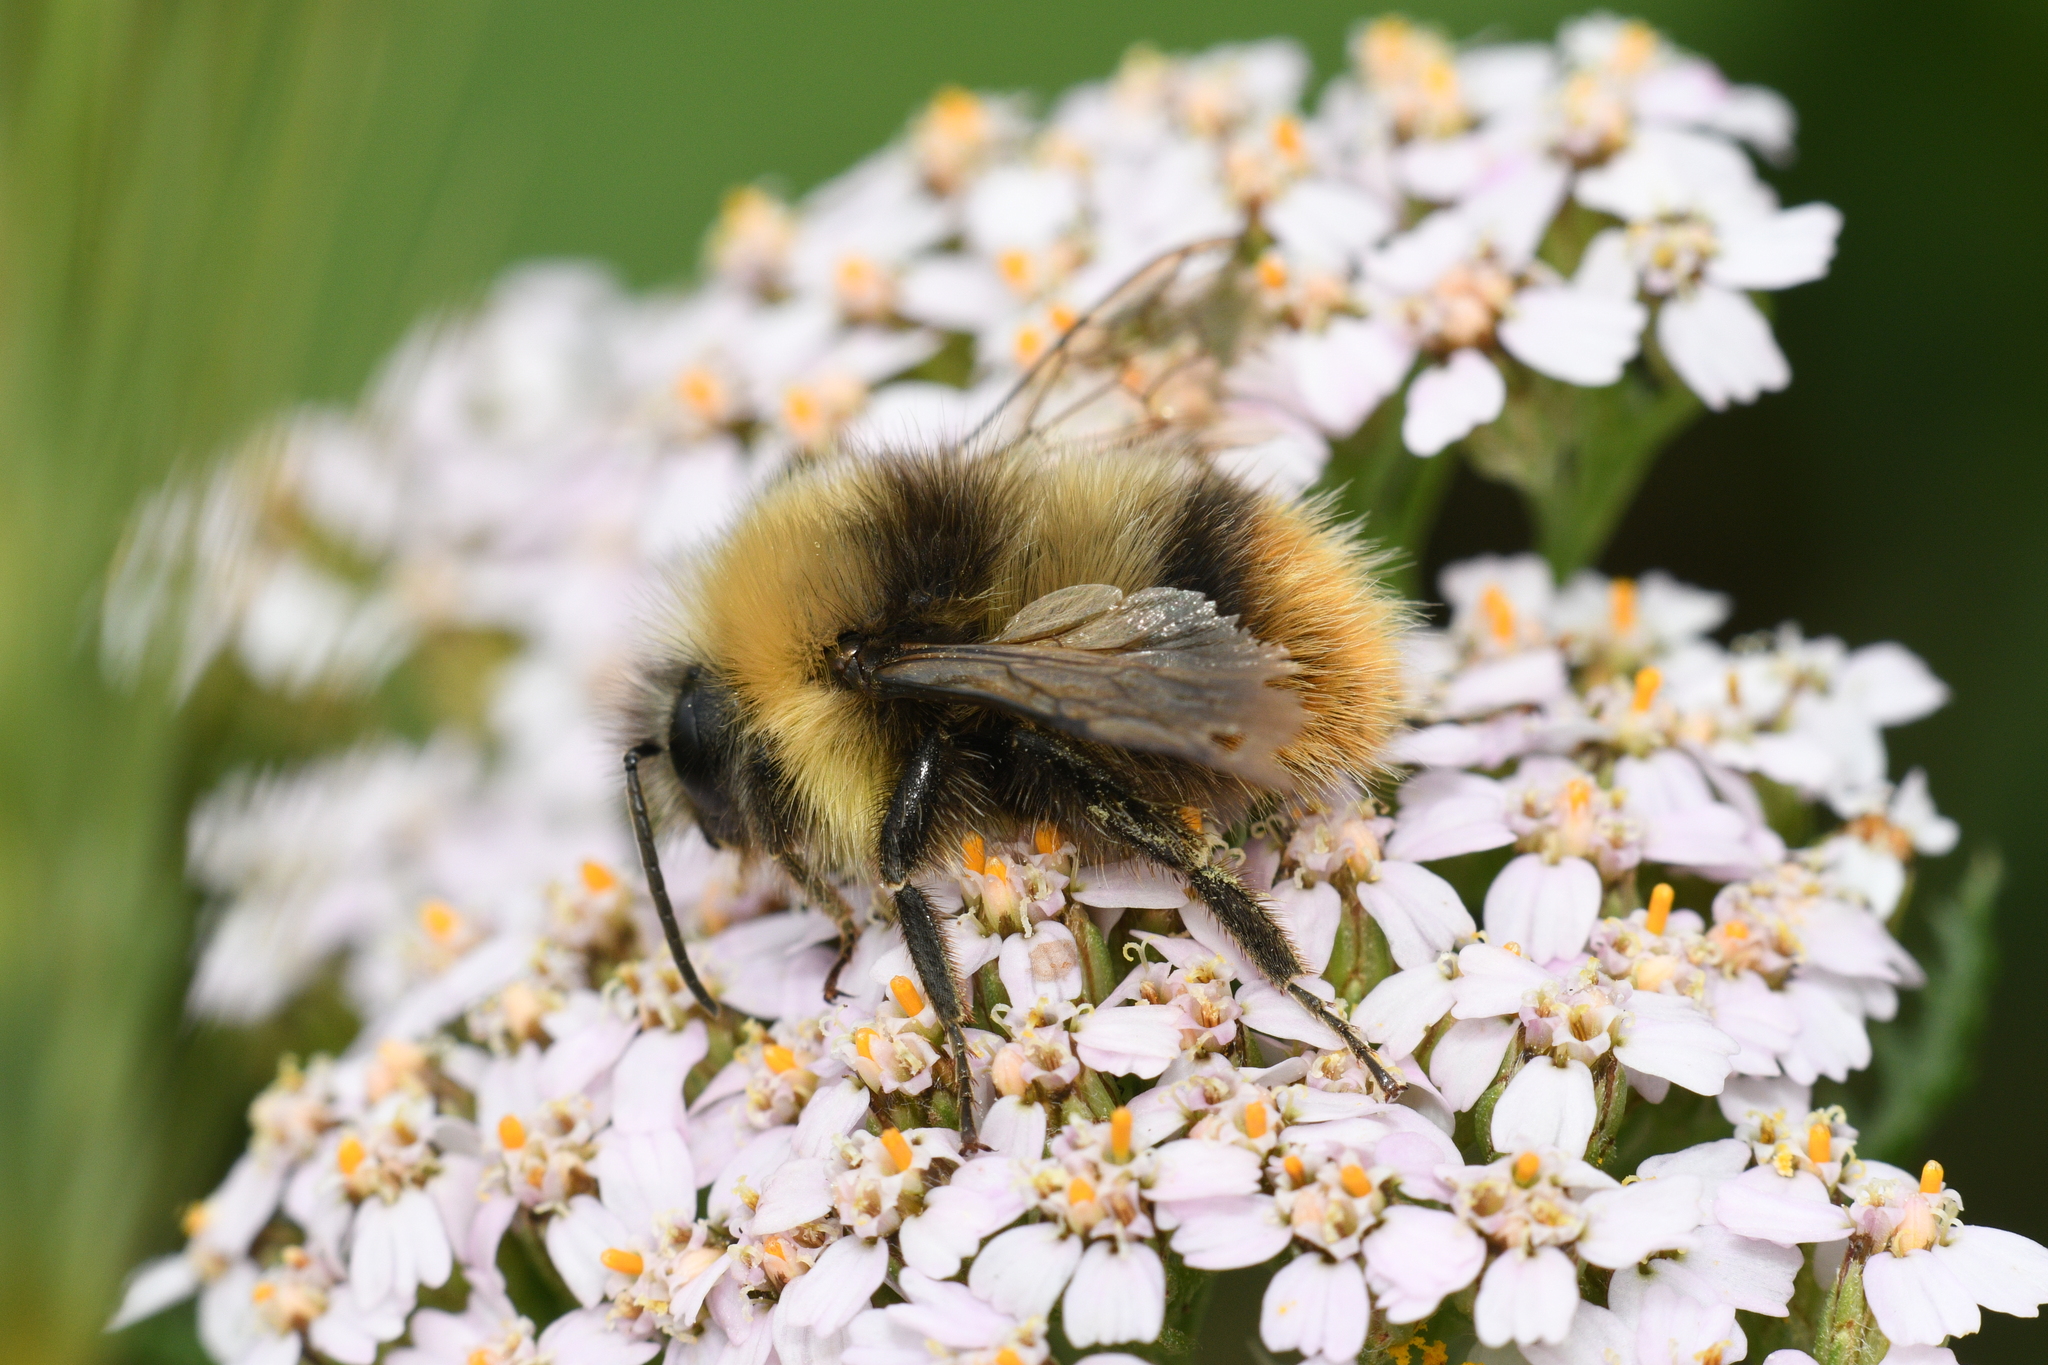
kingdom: Animalia
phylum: Arthropoda
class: Insecta
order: Hymenoptera
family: Apidae
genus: Bombus
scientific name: Bombus pratorum
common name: Early humble-bee
